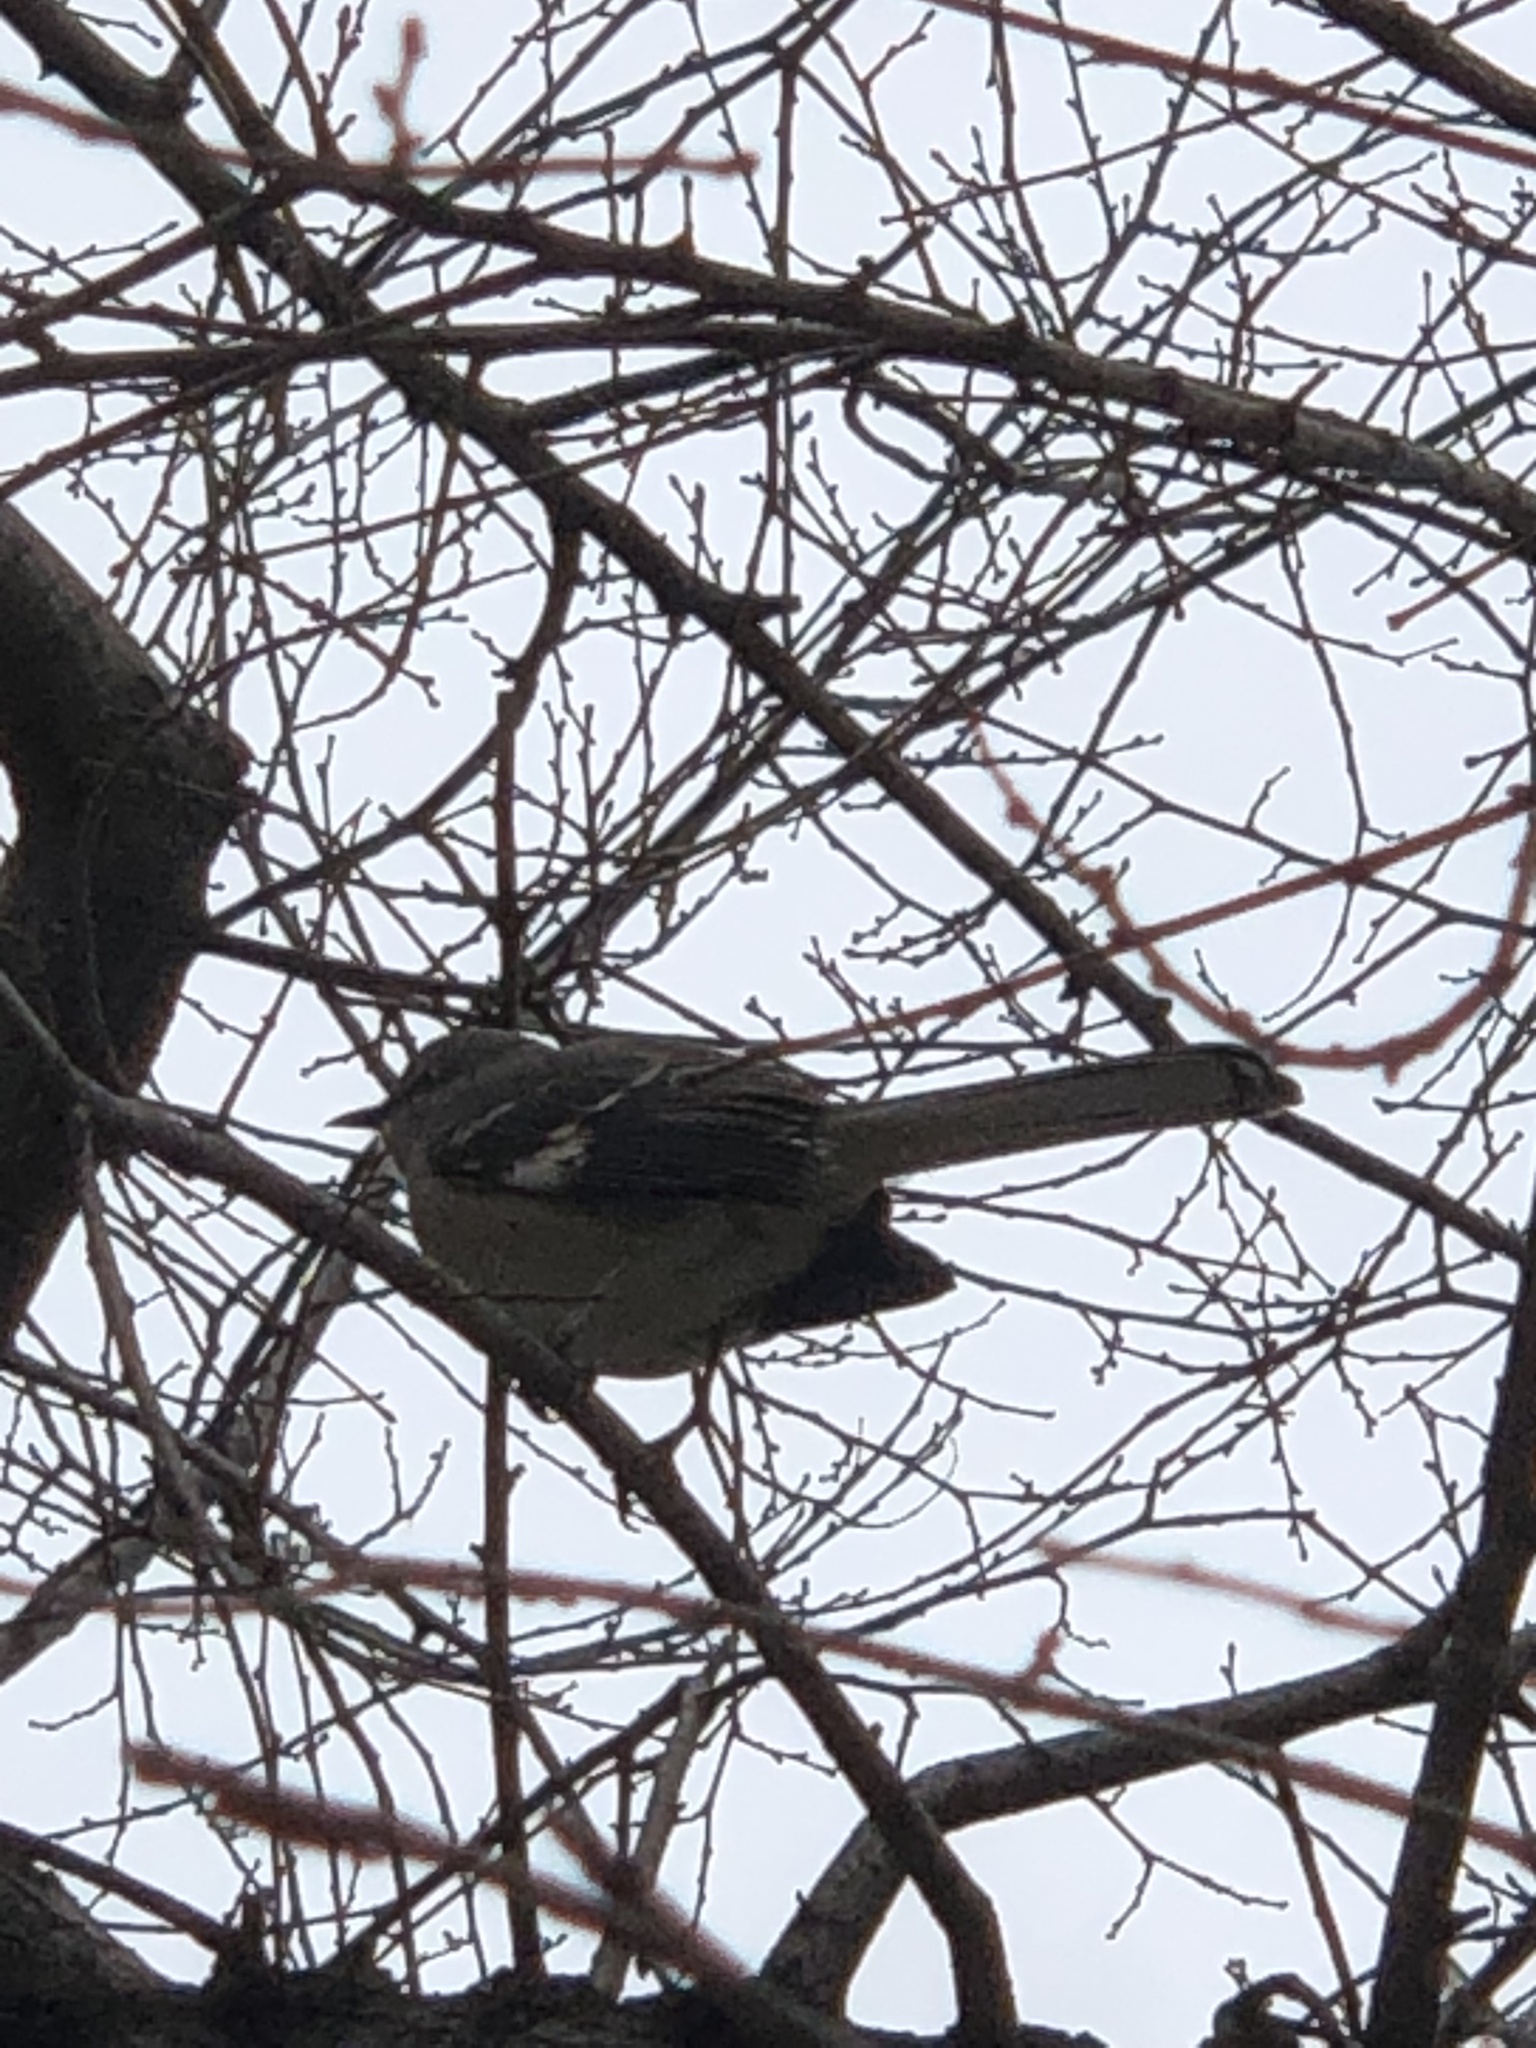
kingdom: Animalia
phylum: Chordata
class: Aves
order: Passeriformes
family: Mimidae
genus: Mimus
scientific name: Mimus polyglottos
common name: Northern mockingbird
